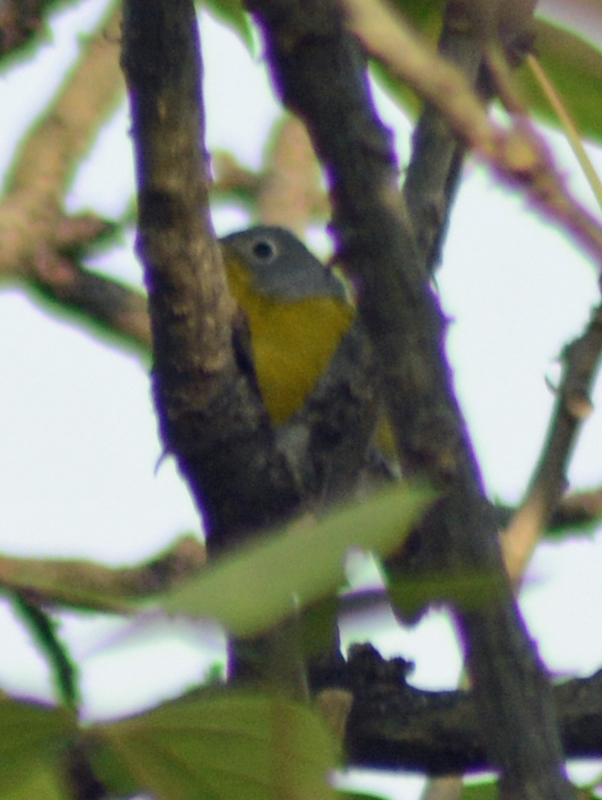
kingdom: Animalia
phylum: Chordata
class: Aves
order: Passeriformes
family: Parulidae
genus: Leiothlypis
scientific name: Leiothlypis ruficapilla
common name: Nashville warbler
